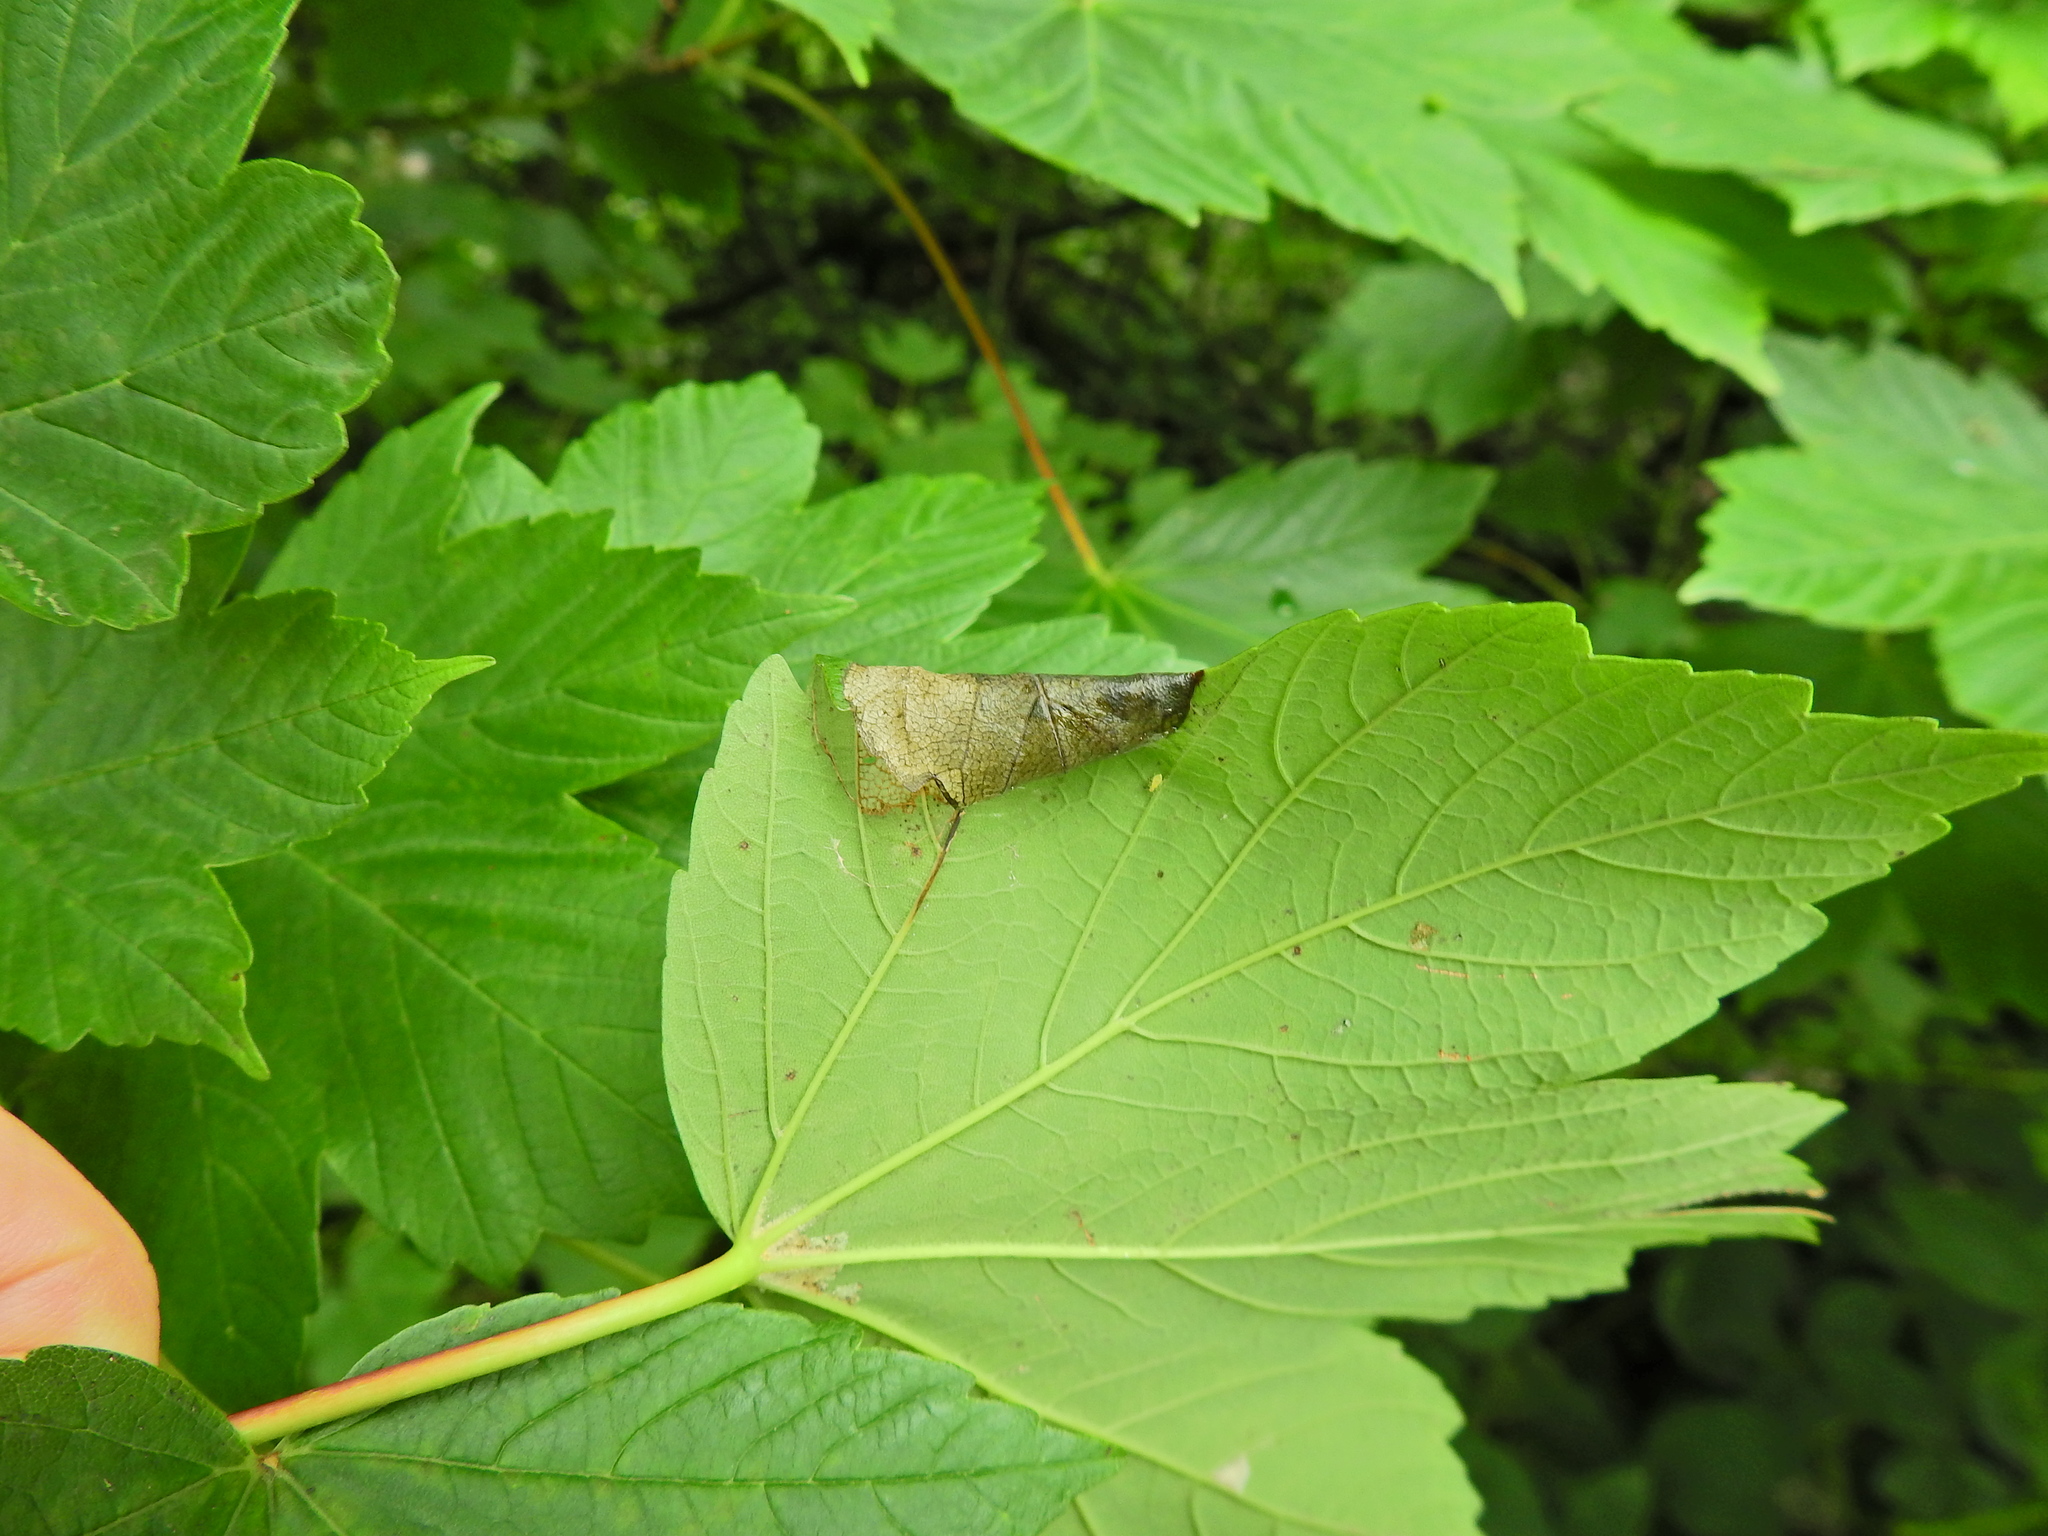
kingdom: Animalia
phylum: Arthropoda
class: Insecta
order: Lepidoptera
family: Gracillariidae
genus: Caloptilia
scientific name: Caloptilia rufipennella
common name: Small red slender
